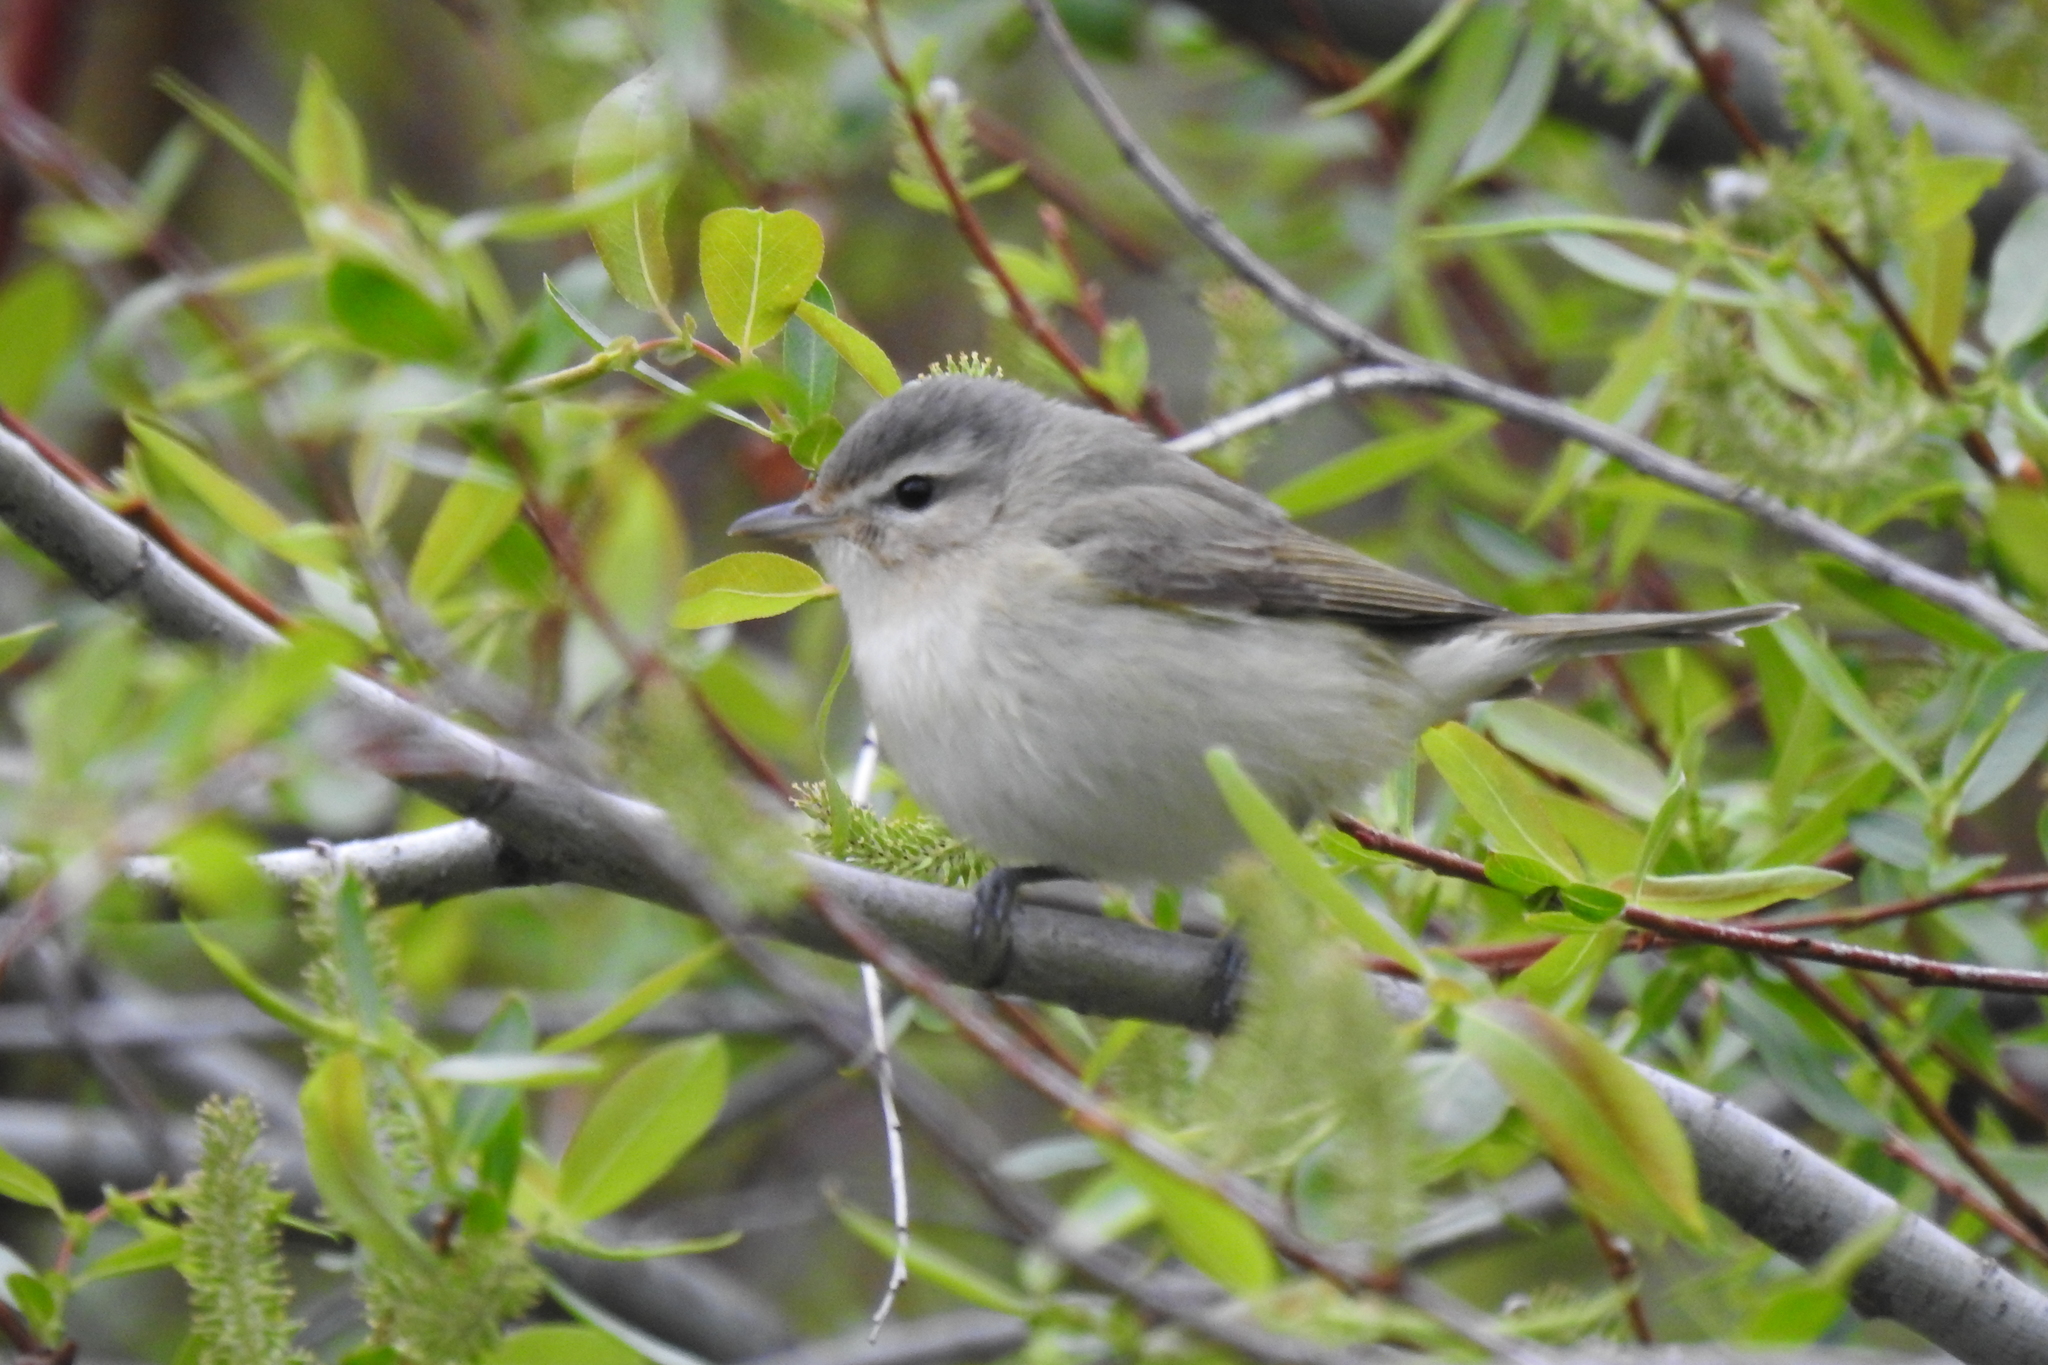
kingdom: Animalia
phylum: Chordata
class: Aves
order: Passeriformes
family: Vireonidae
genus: Vireo
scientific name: Vireo gilvus
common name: Warbling vireo
